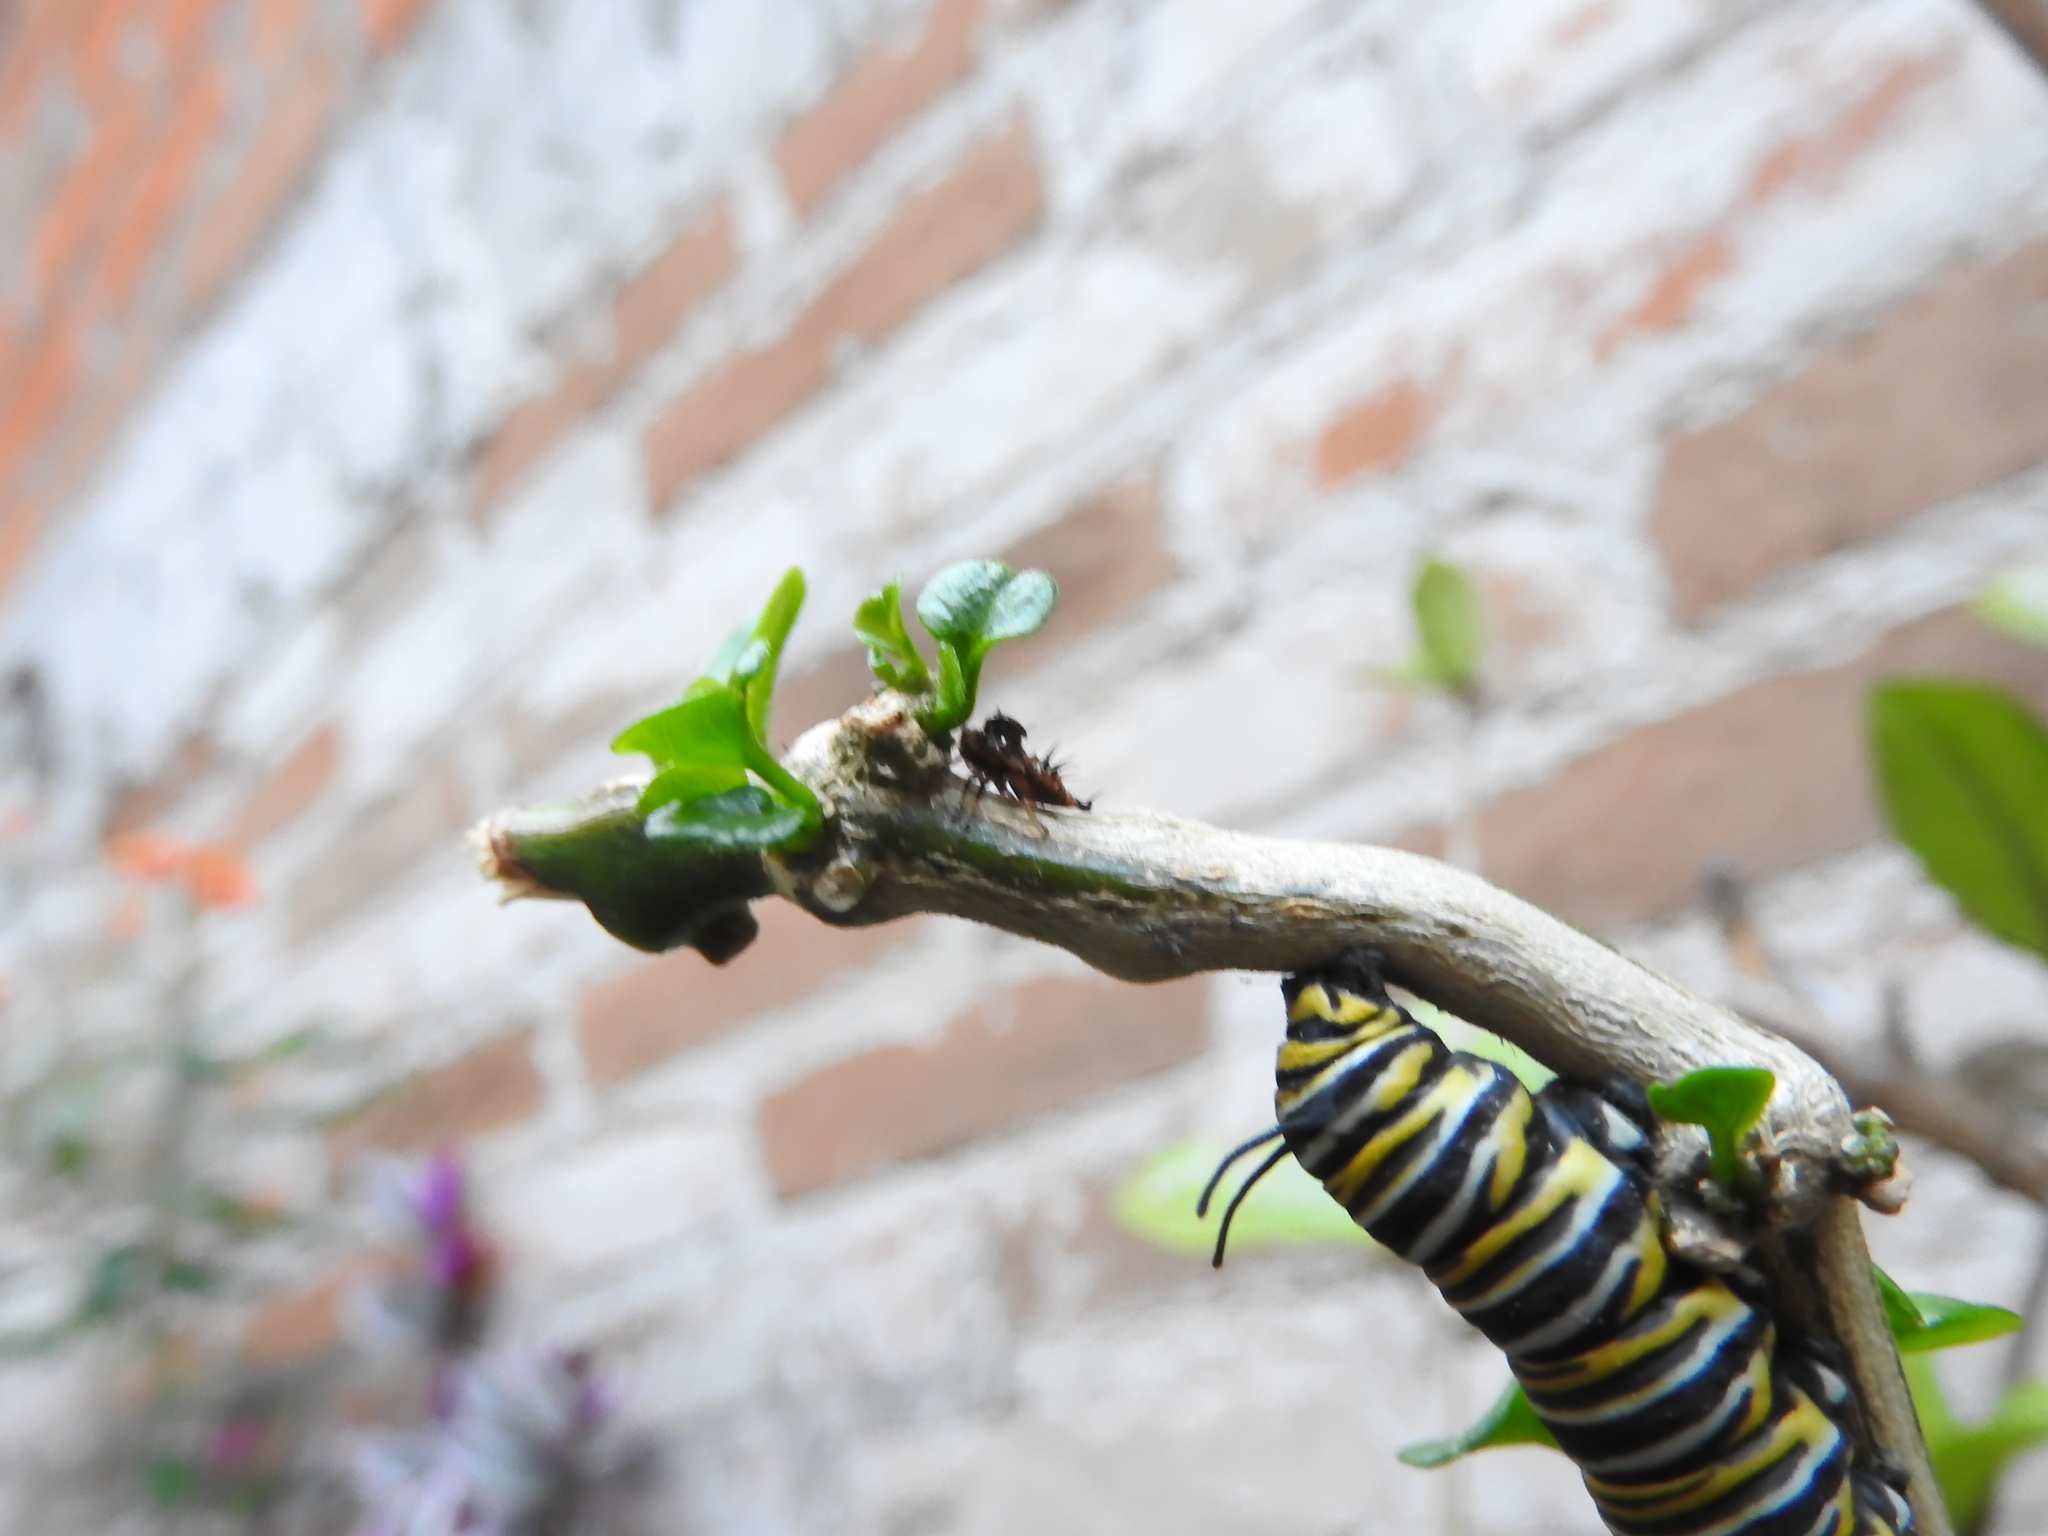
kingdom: Animalia
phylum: Arthropoda
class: Insecta
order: Lepidoptera
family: Nymphalidae
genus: Danaus
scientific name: Danaus plexippus
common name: Monarch
